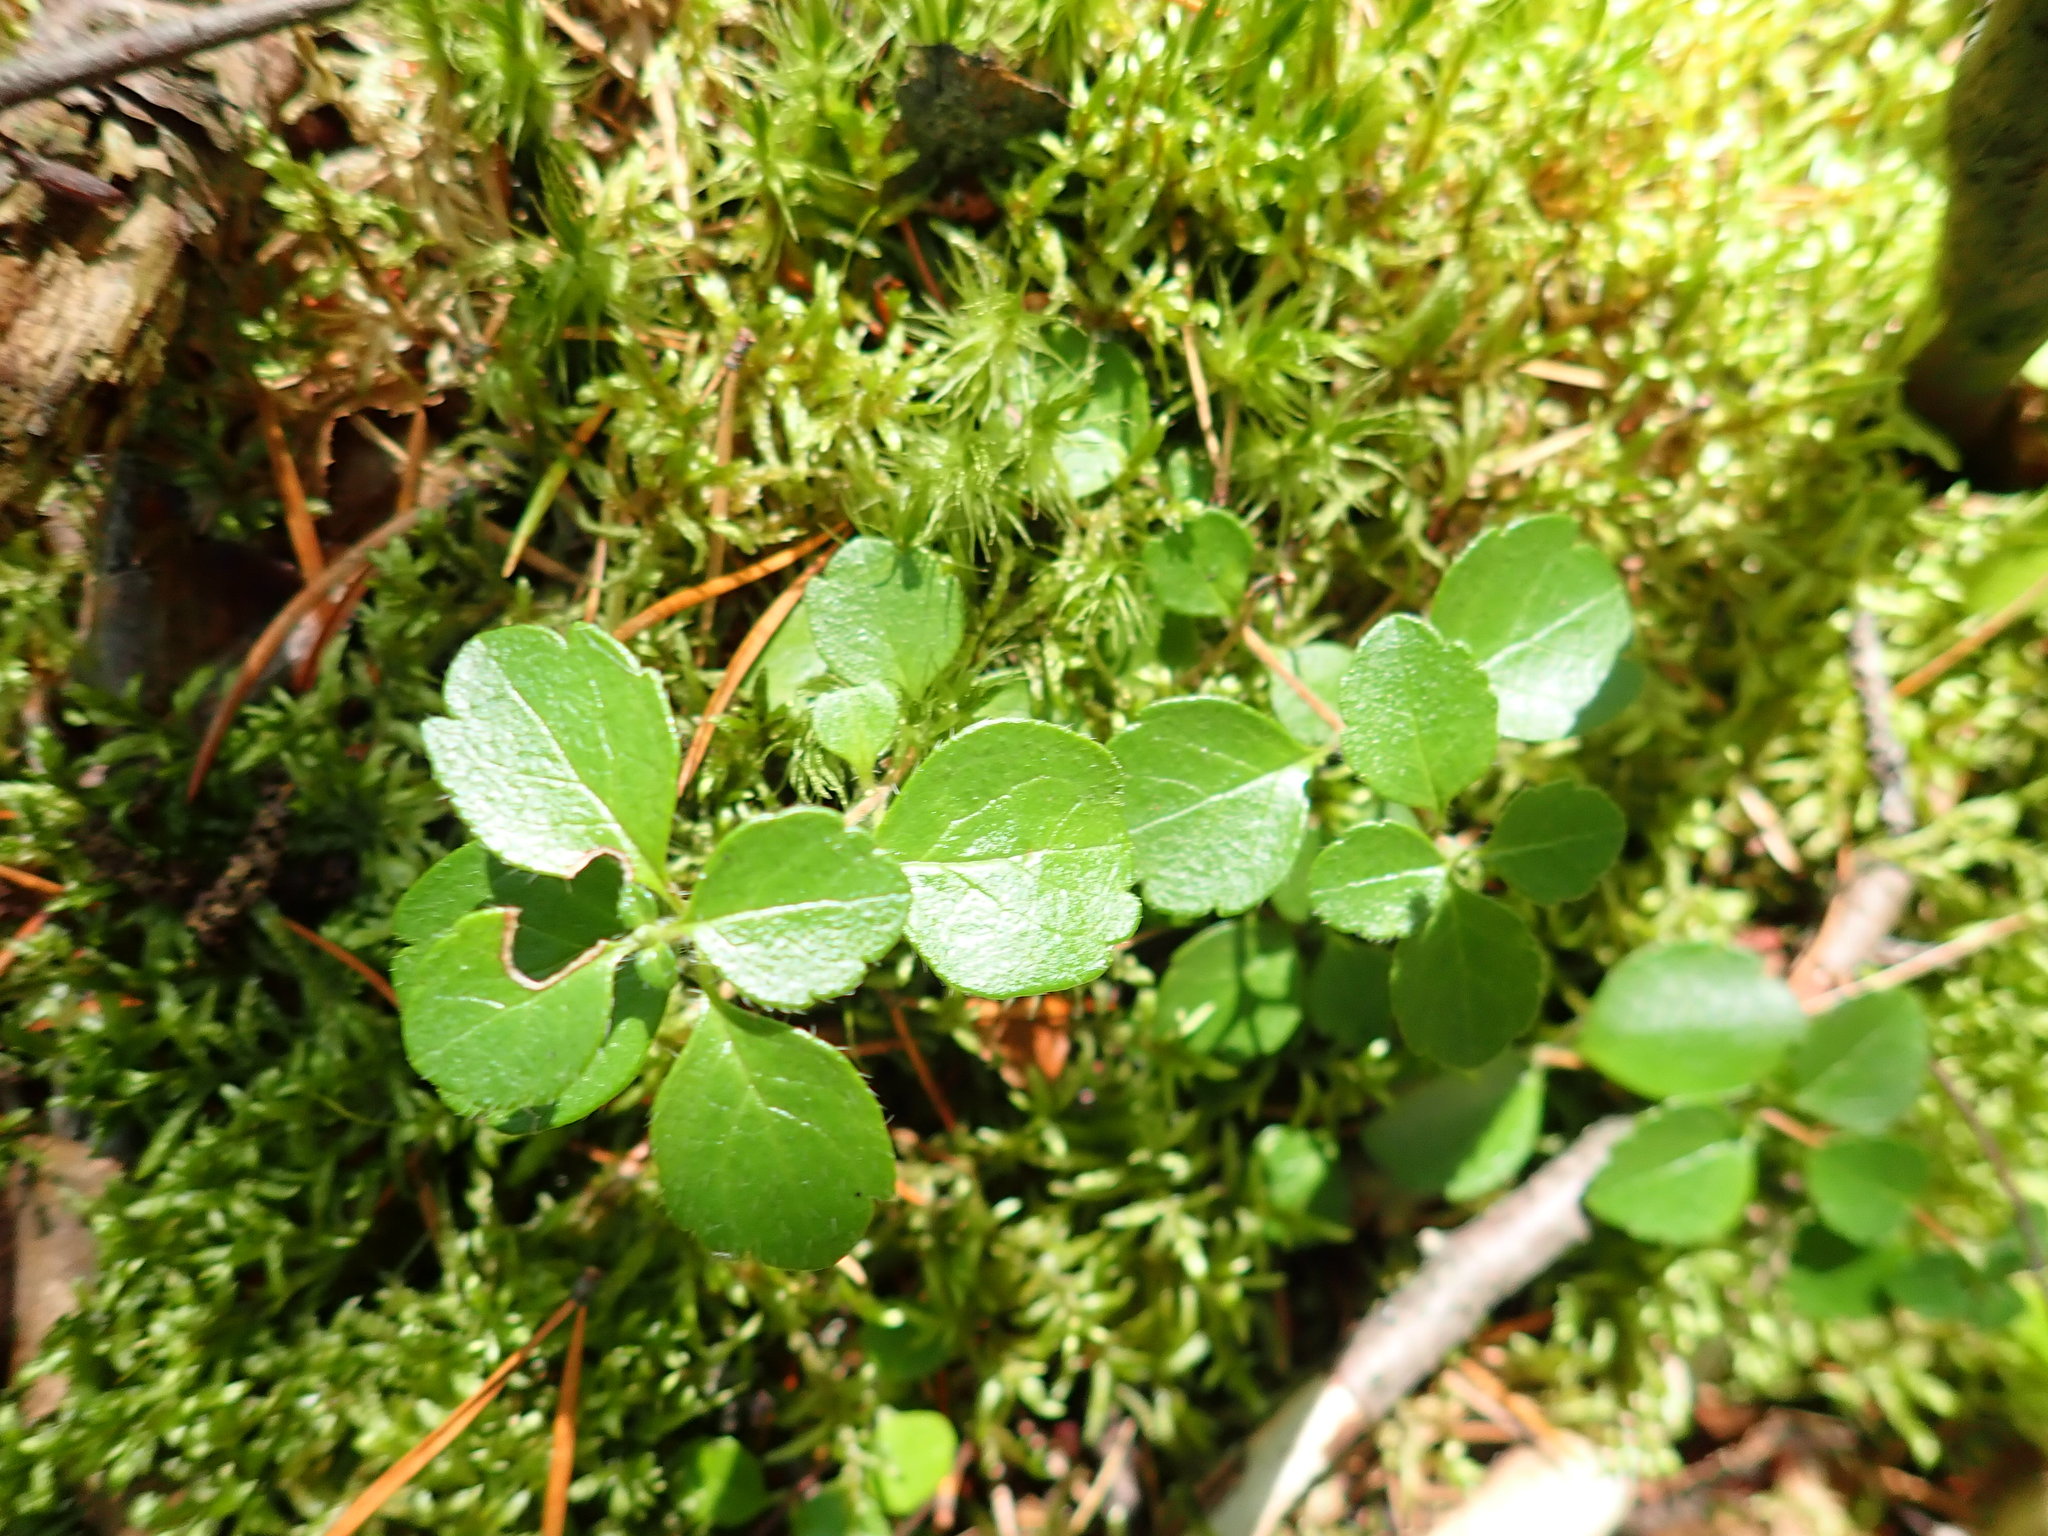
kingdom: Plantae
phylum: Tracheophyta
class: Magnoliopsida
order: Dipsacales
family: Caprifoliaceae
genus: Linnaea
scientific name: Linnaea borealis
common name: Twinflower
